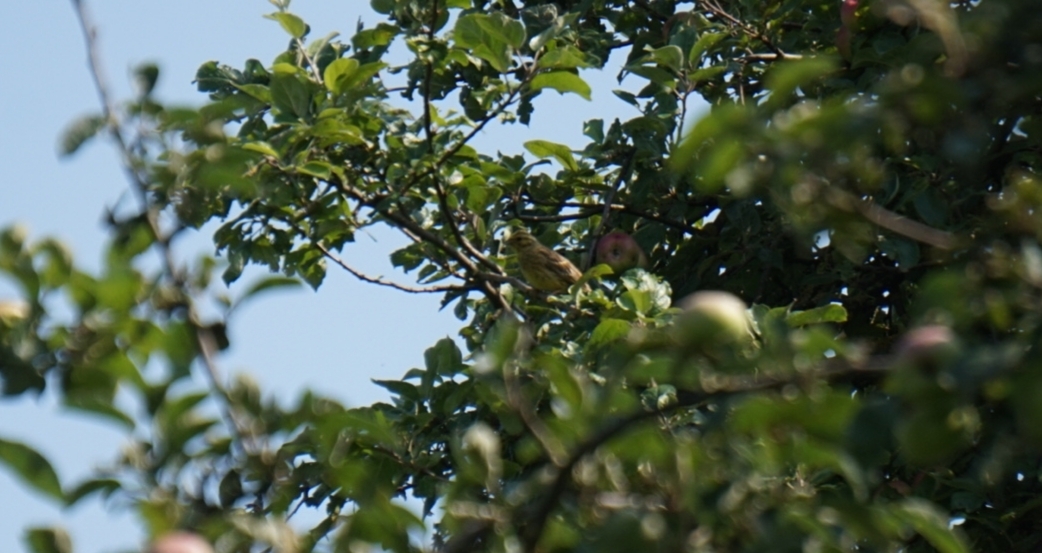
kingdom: Animalia
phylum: Chordata
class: Aves
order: Passeriformes
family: Emberizidae
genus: Emberiza
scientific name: Emberiza cirlus
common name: Cirl bunting
